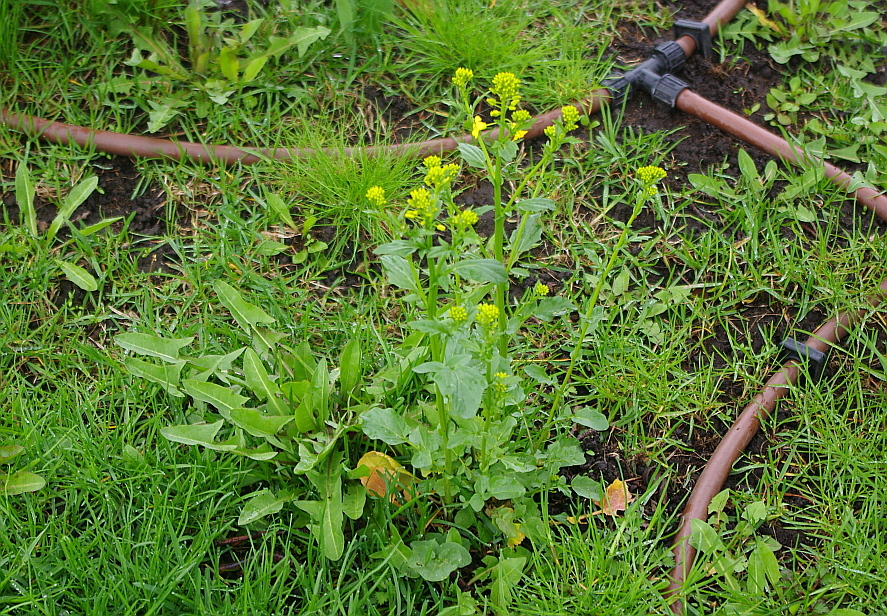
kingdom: Plantae
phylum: Tracheophyta
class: Magnoliopsida
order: Brassicales
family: Brassicaceae
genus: Barbarea
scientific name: Barbarea vulgaris
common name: Cressy-greens
